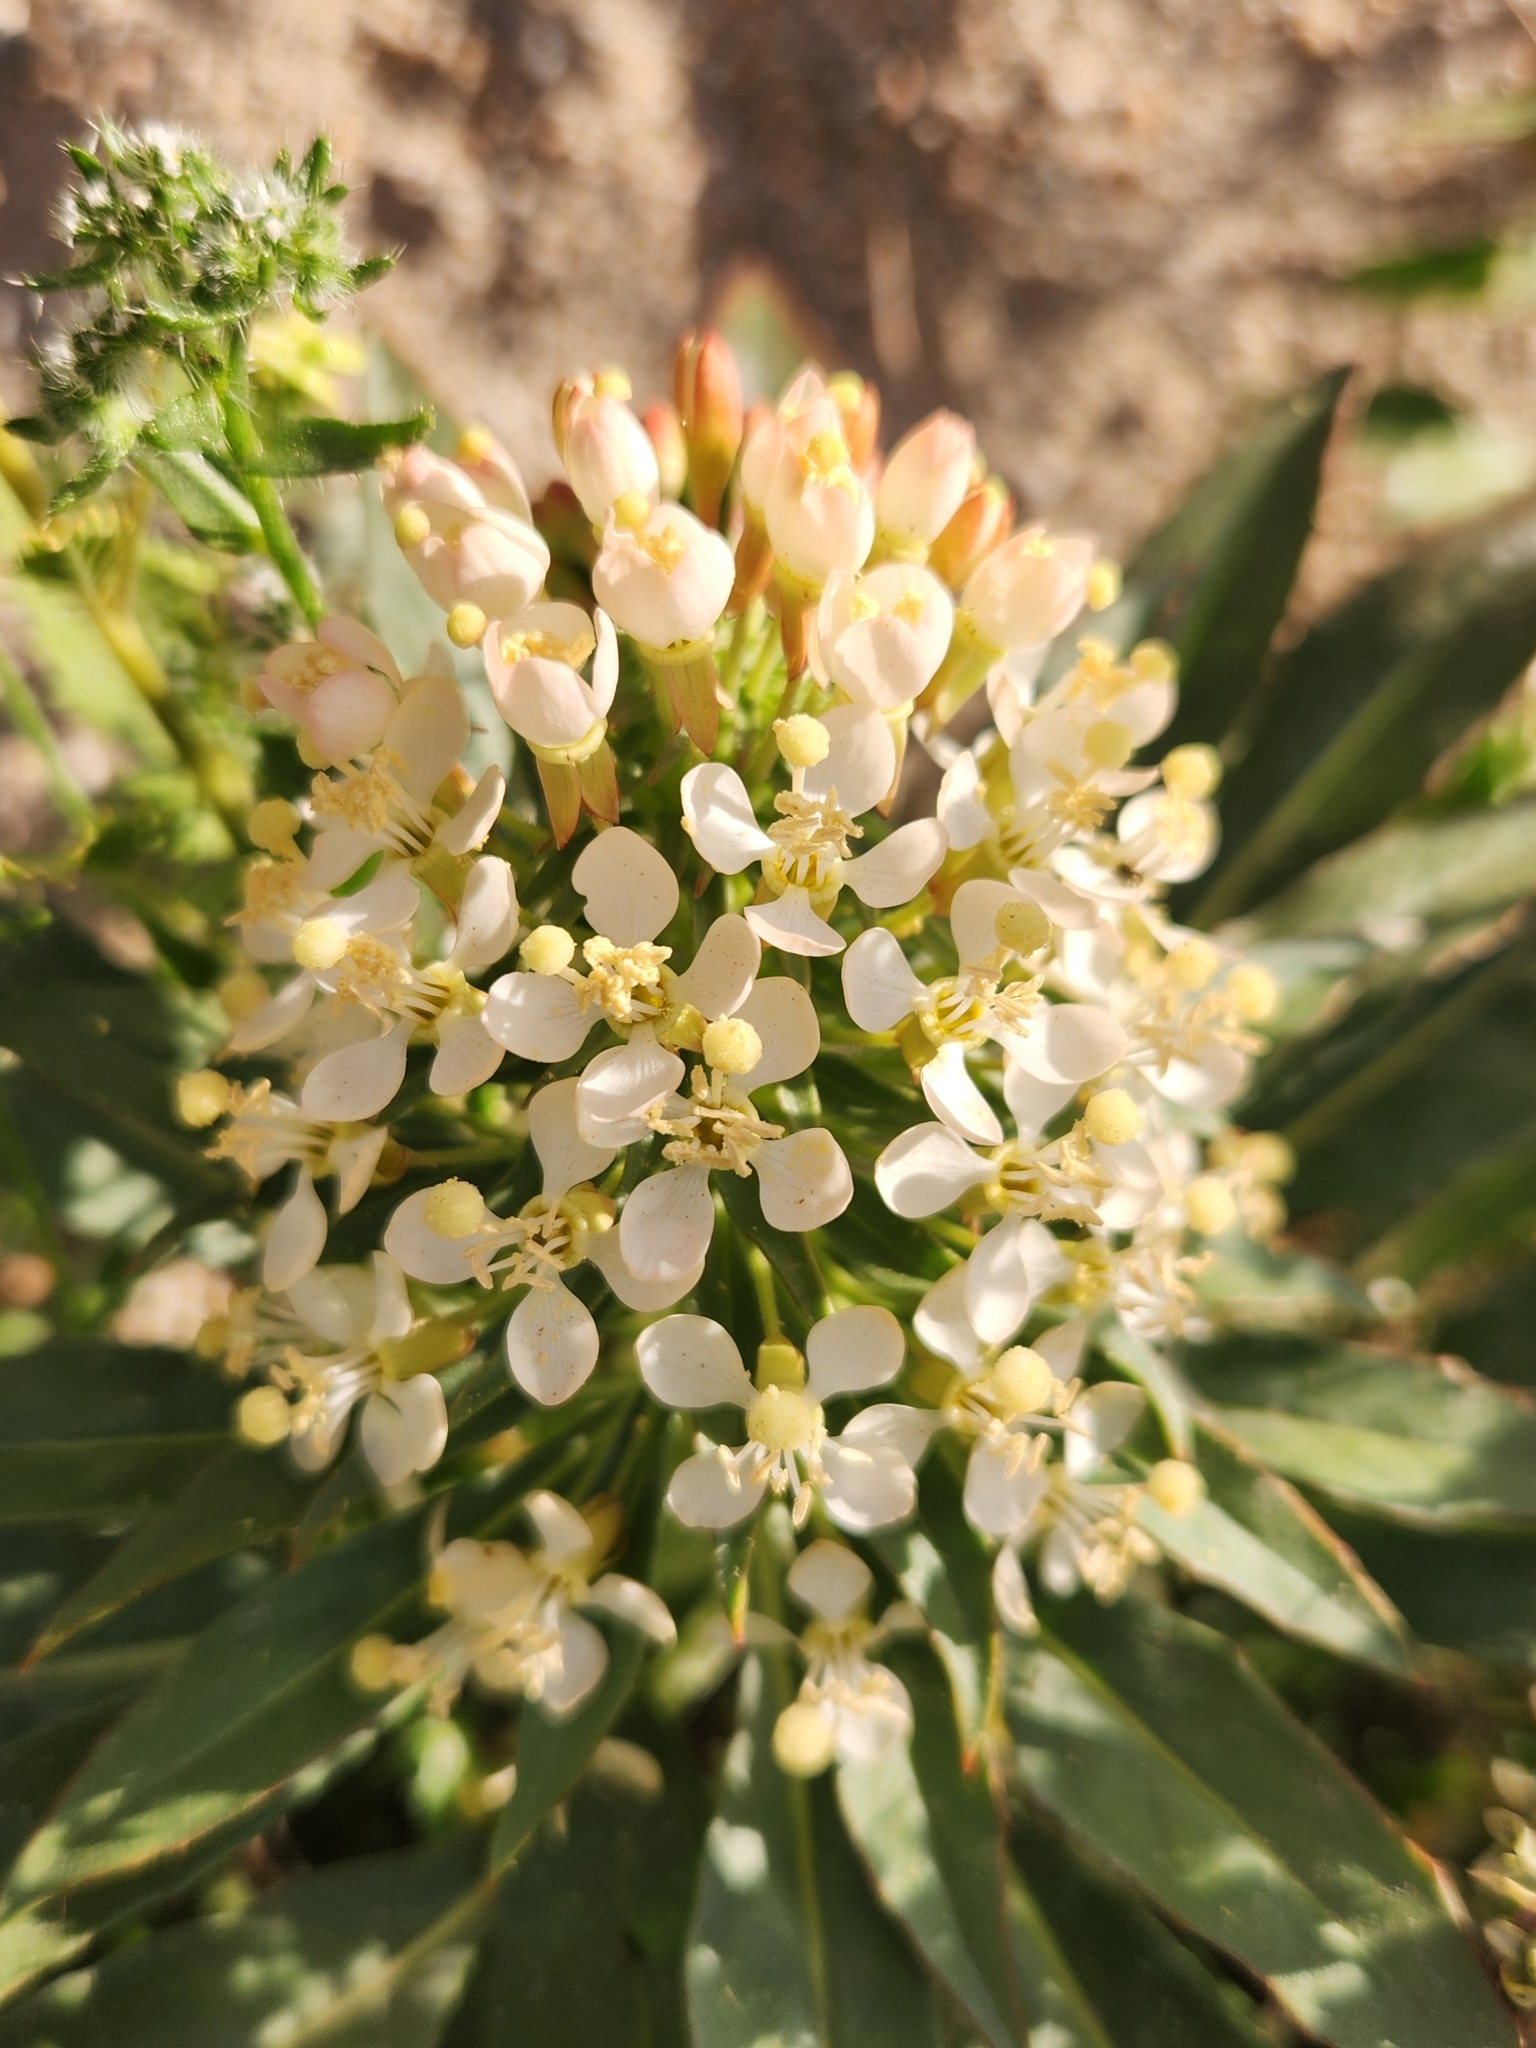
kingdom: Plantae
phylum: Tracheophyta
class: Magnoliopsida
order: Myrtales
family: Onagraceae
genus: Eremothera
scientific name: Eremothera boothii
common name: Booth's evening primrose
